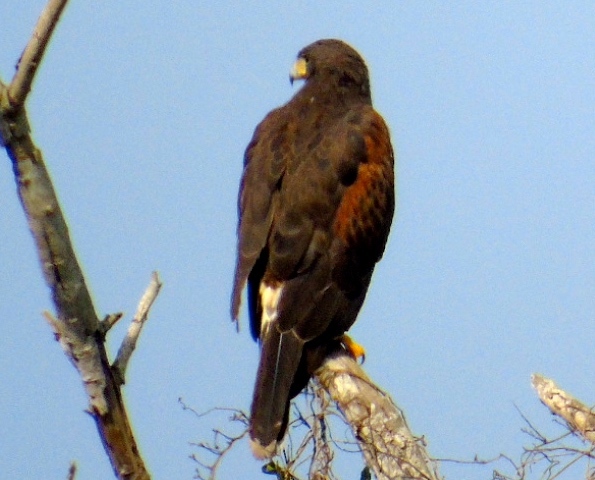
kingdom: Animalia
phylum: Chordata
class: Aves
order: Accipitriformes
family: Accipitridae
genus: Parabuteo
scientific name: Parabuteo unicinctus
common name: Harris's hawk
